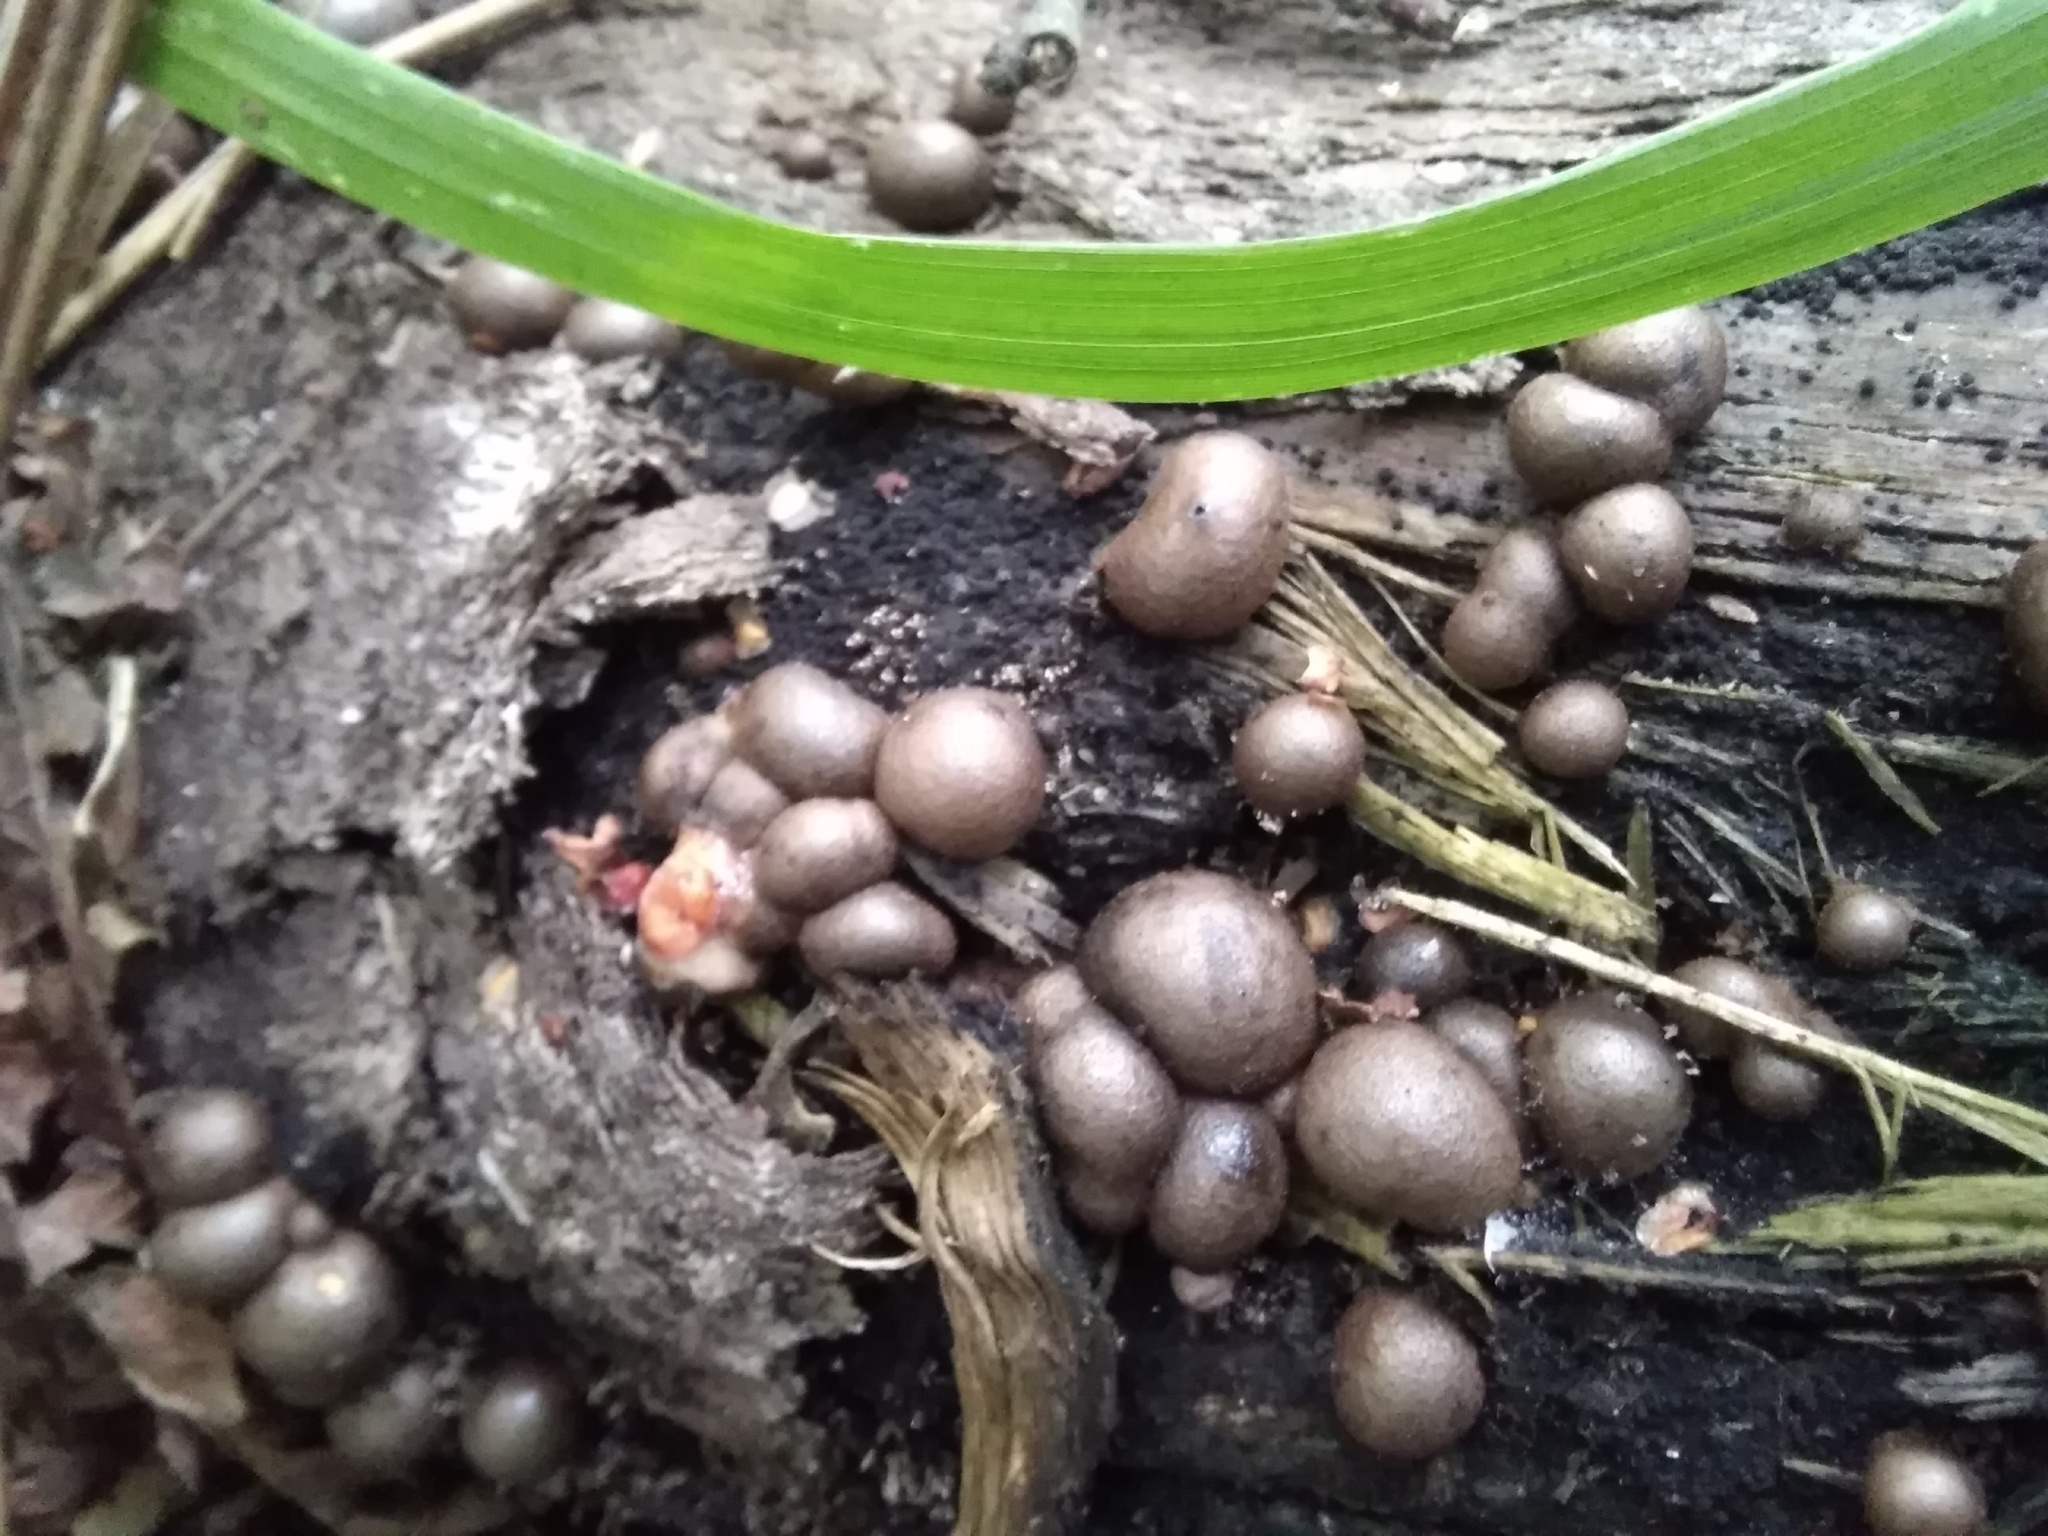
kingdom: Protozoa
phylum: Mycetozoa
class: Myxomycetes
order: Cribrariales
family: Tubiferaceae
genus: Lycogala
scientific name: Lycogala epidendrum
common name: Wolf's milk
